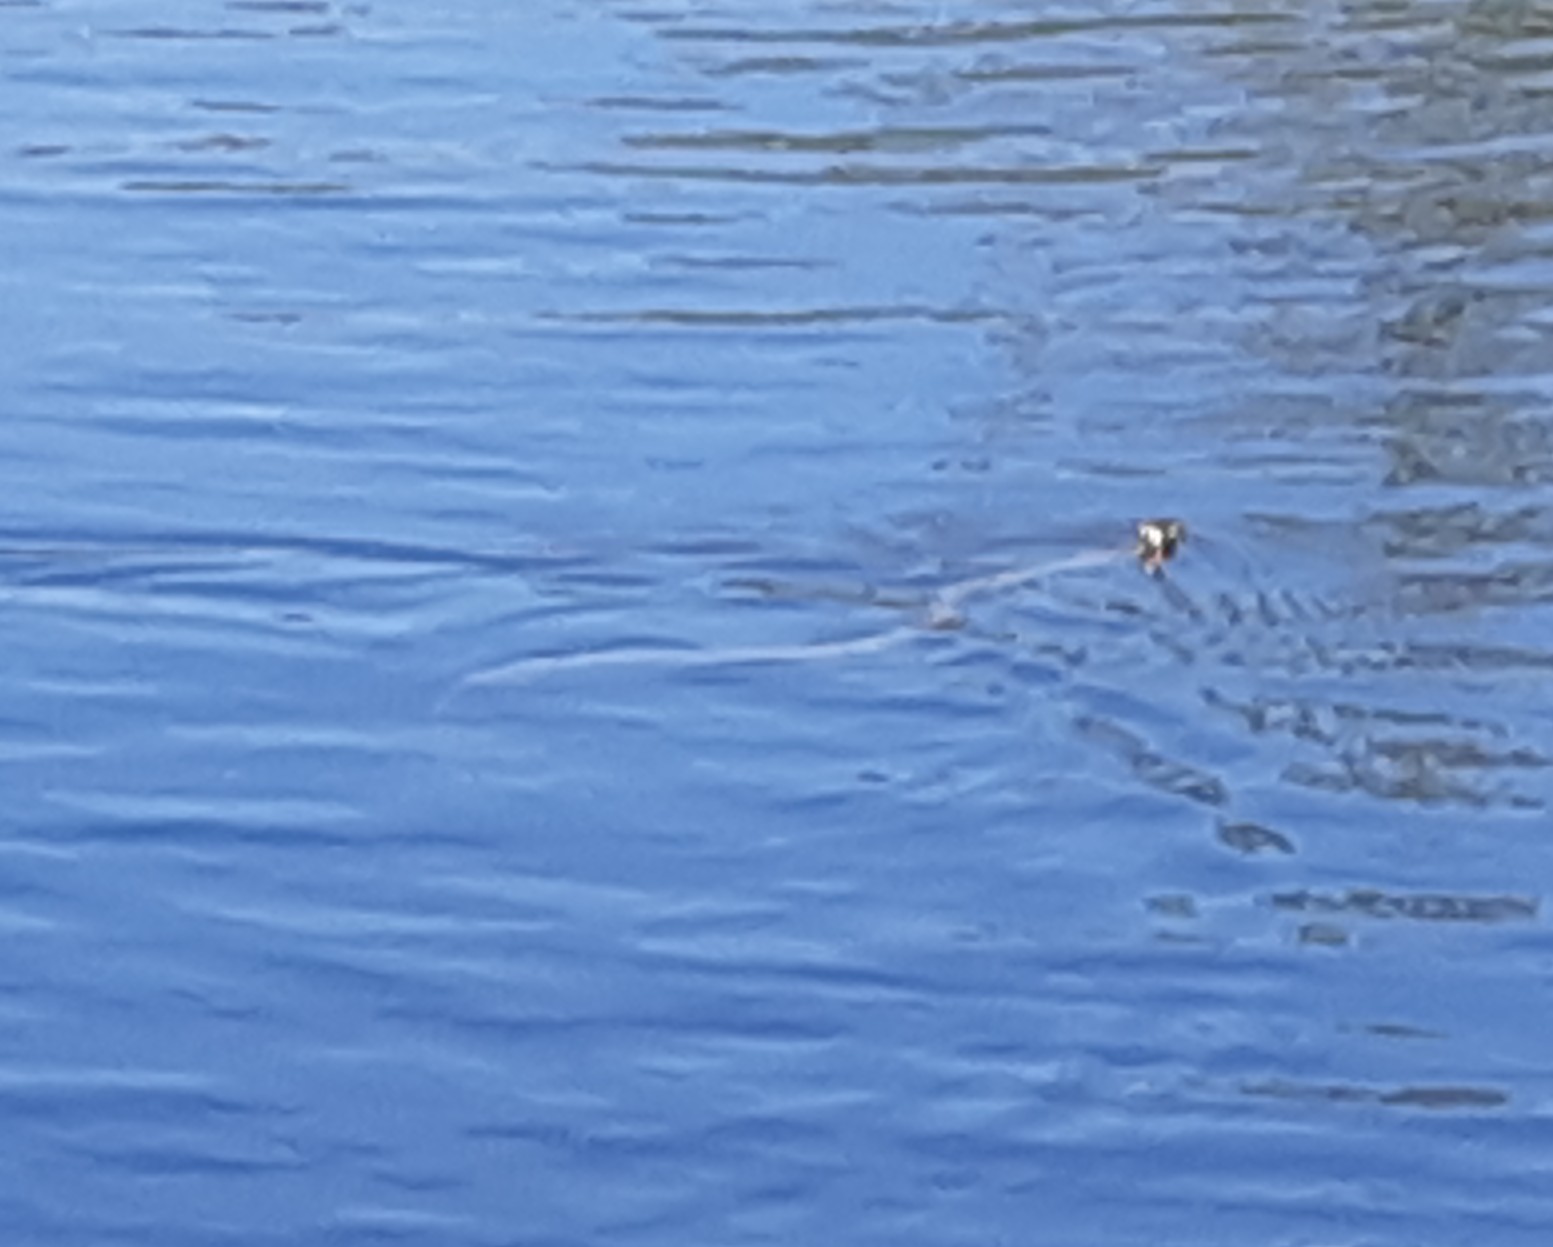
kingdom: Animalia
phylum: Chordata
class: Squamata
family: Colubridae
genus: Natrix
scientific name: Natrix natrix
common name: Grass snake
